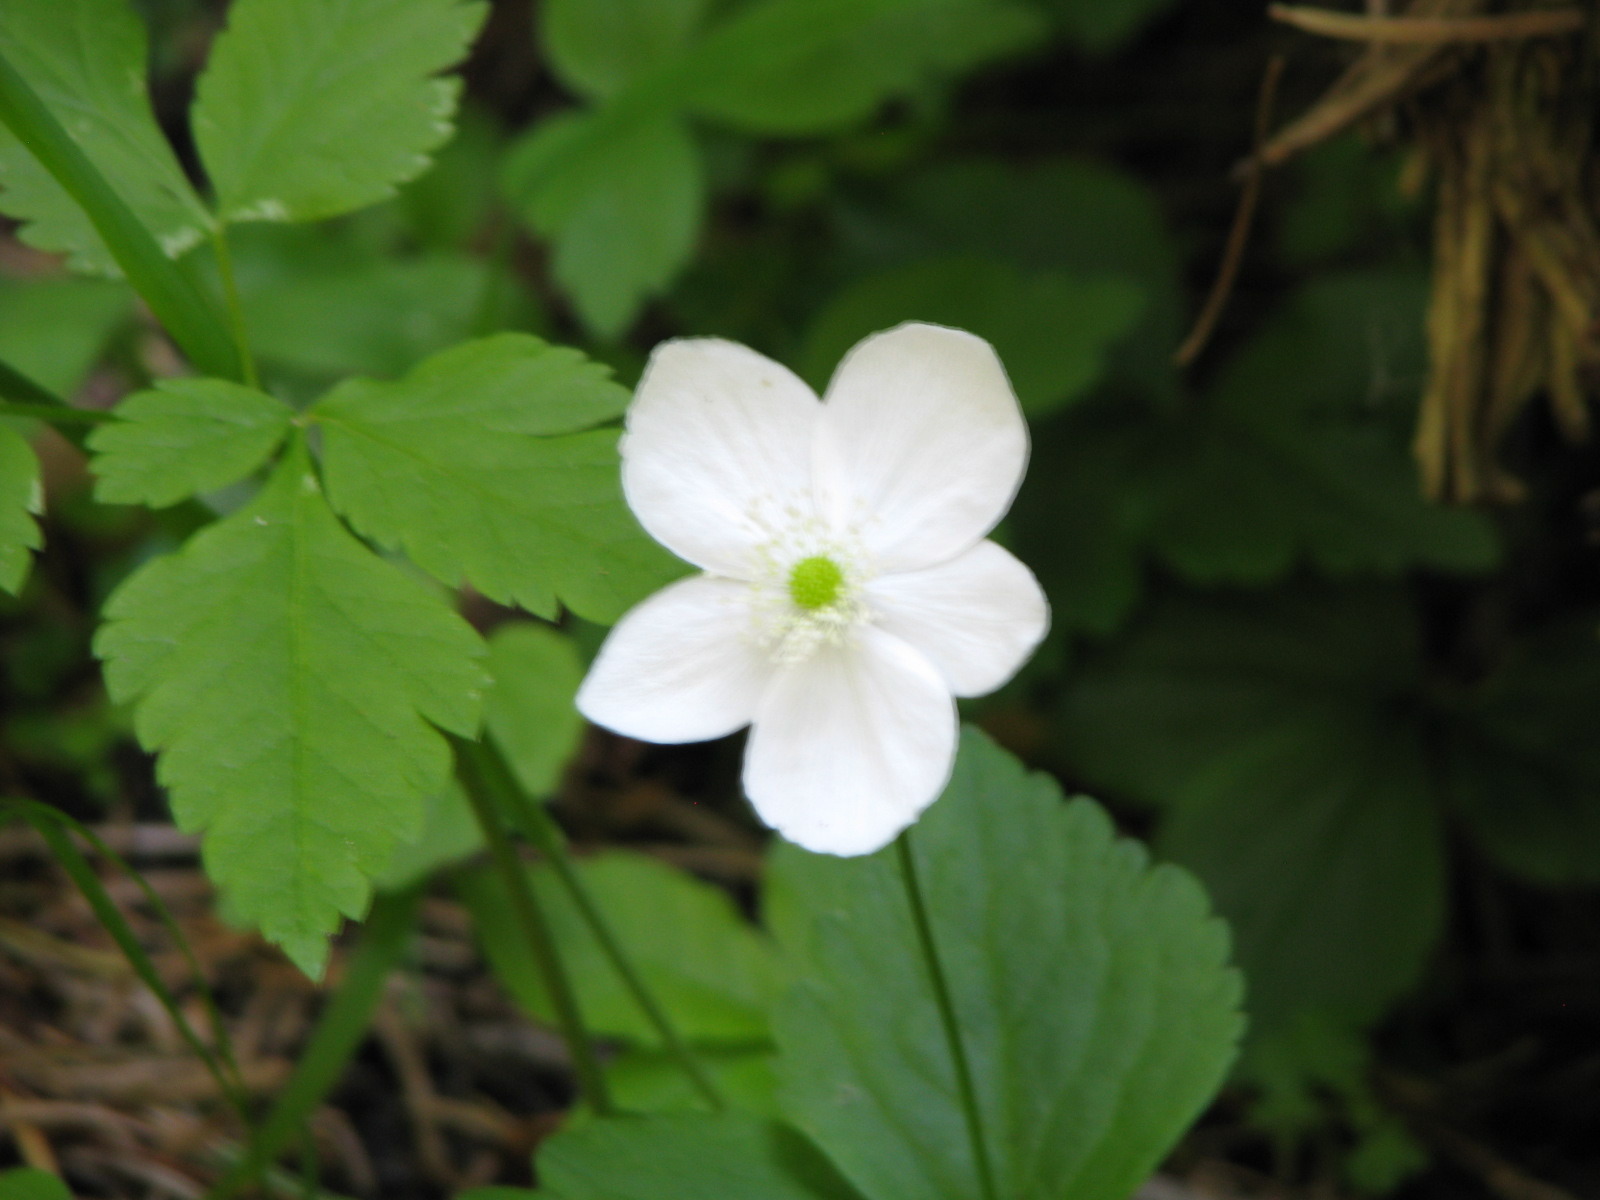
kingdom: Plantae
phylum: Tracheophyta
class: Magnoliopsida
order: Ranunculales
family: Ranunculaceae
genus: Anemonastrum
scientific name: Anemonastrum deltoideum
